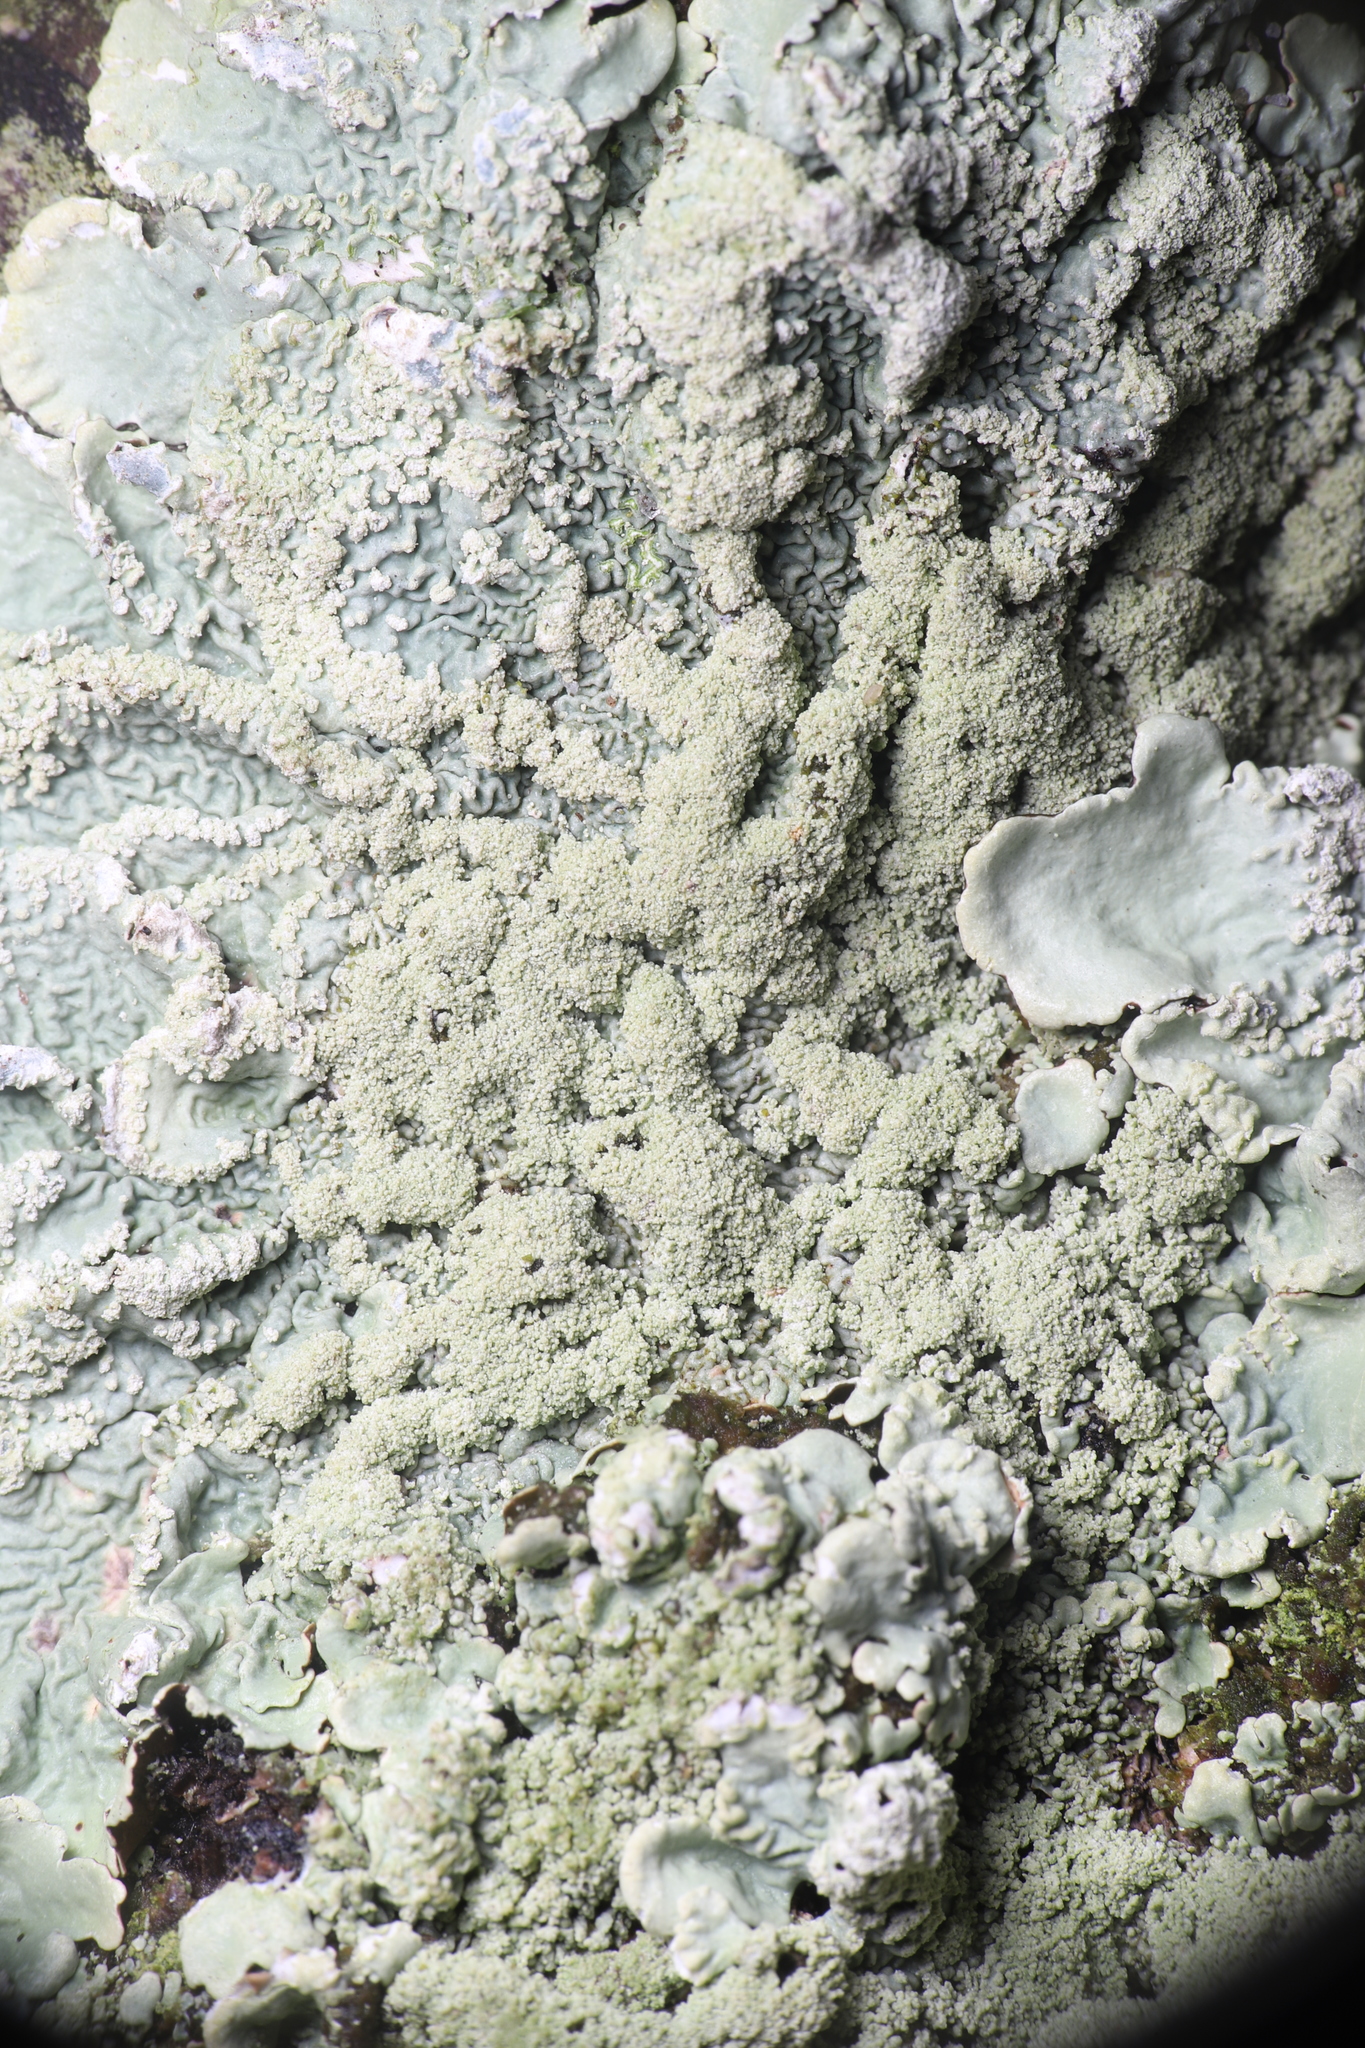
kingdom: Fungi
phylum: Ascomycota
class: Lecanoromycetes
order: Lecanorales
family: Parmeliaceae
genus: Flavoparmelia
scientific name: Flavoparmelia caperata
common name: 40-mile per hour lichen
